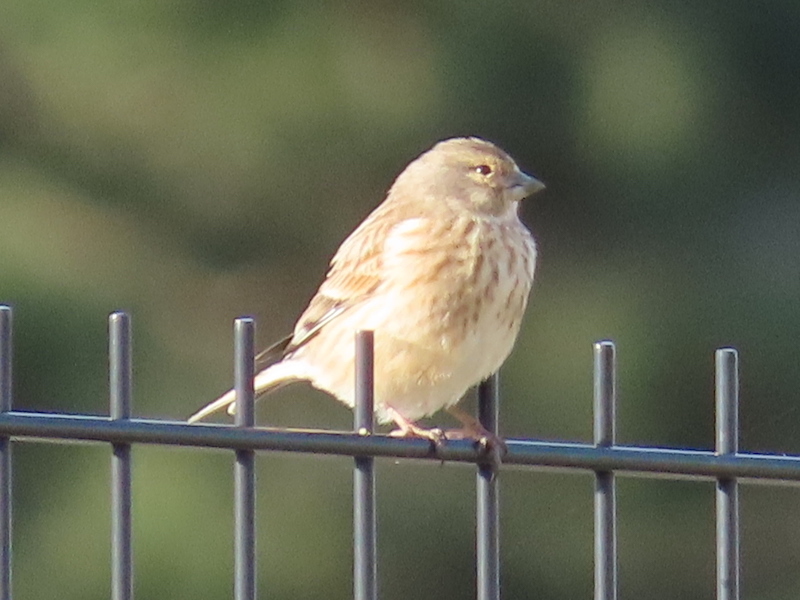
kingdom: Animalia
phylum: Chordata
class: Aves
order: Passeriformes
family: Fringillidae
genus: Linaria
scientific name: Linaria cannabina
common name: Common linnet
